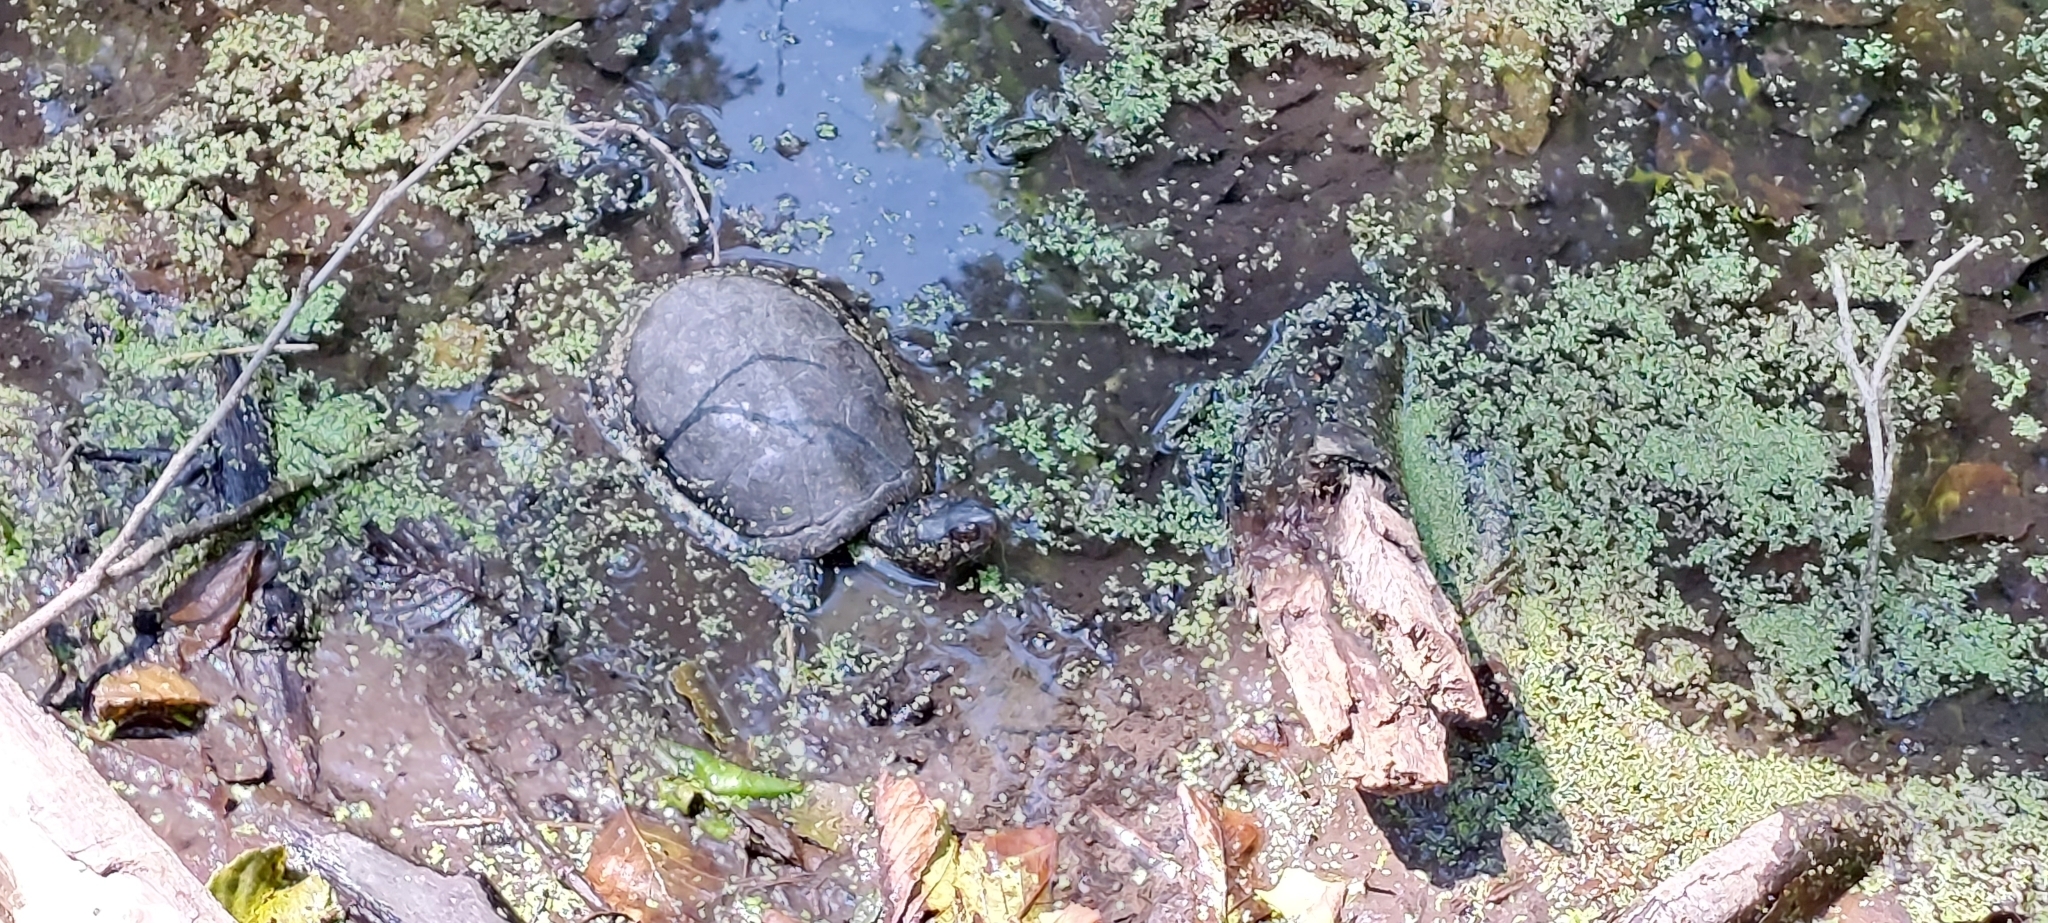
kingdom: Animalia
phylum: Chordata
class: Testudines
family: Emydidae
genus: Emys
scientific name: Emys orbicularis
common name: European pond turtle
